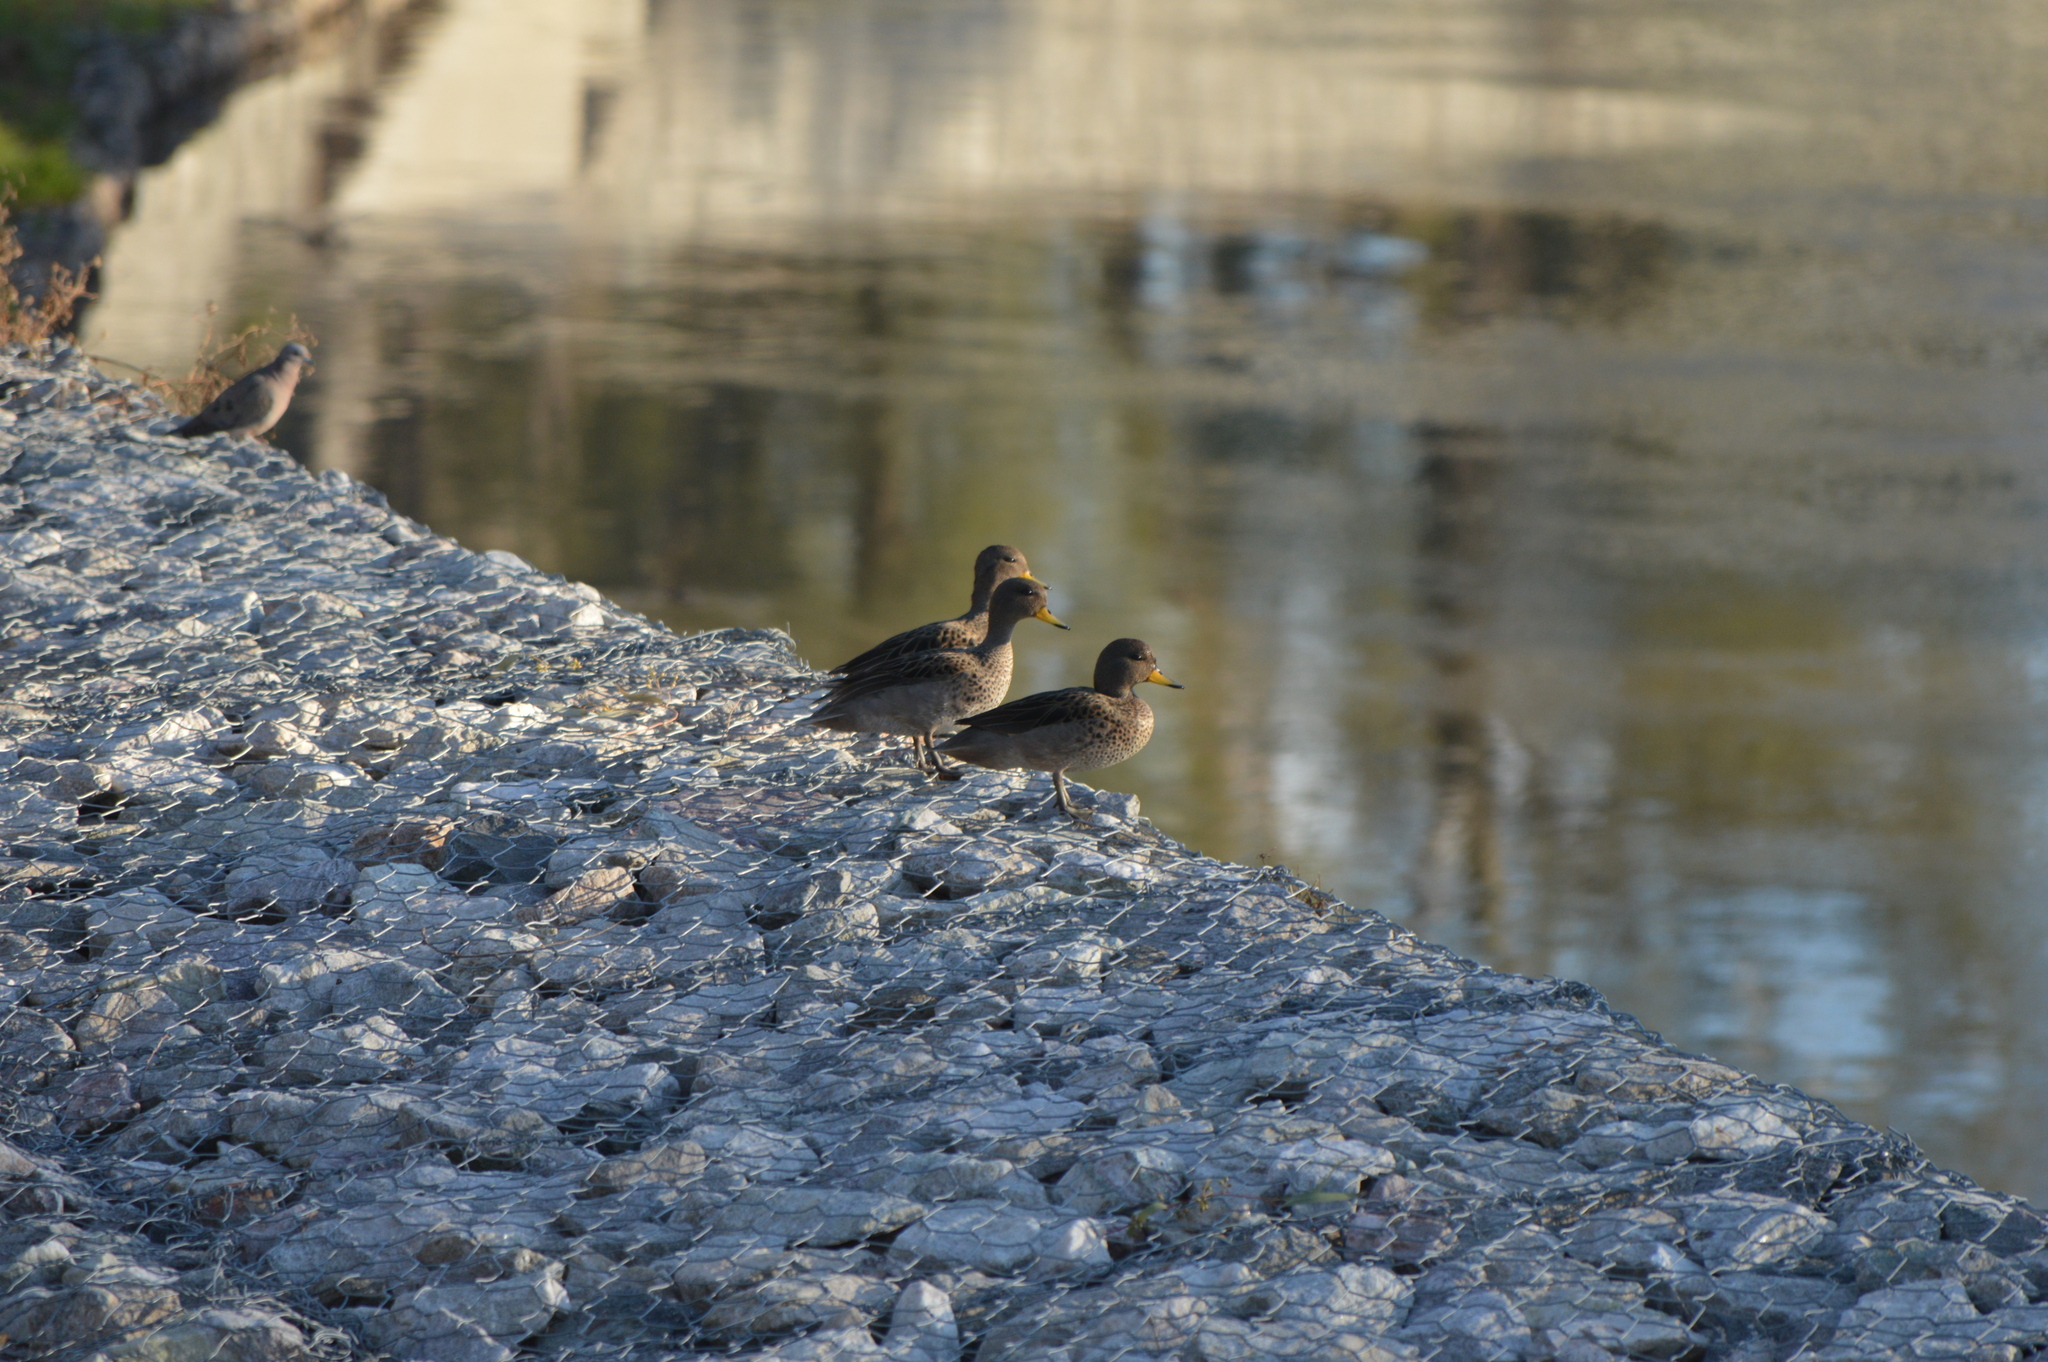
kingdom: Animalia
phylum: Chordata
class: Aves
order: Anseriformes
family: Anatidae
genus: Anas
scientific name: Anas flavirostris
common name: Yellow-billed teal
